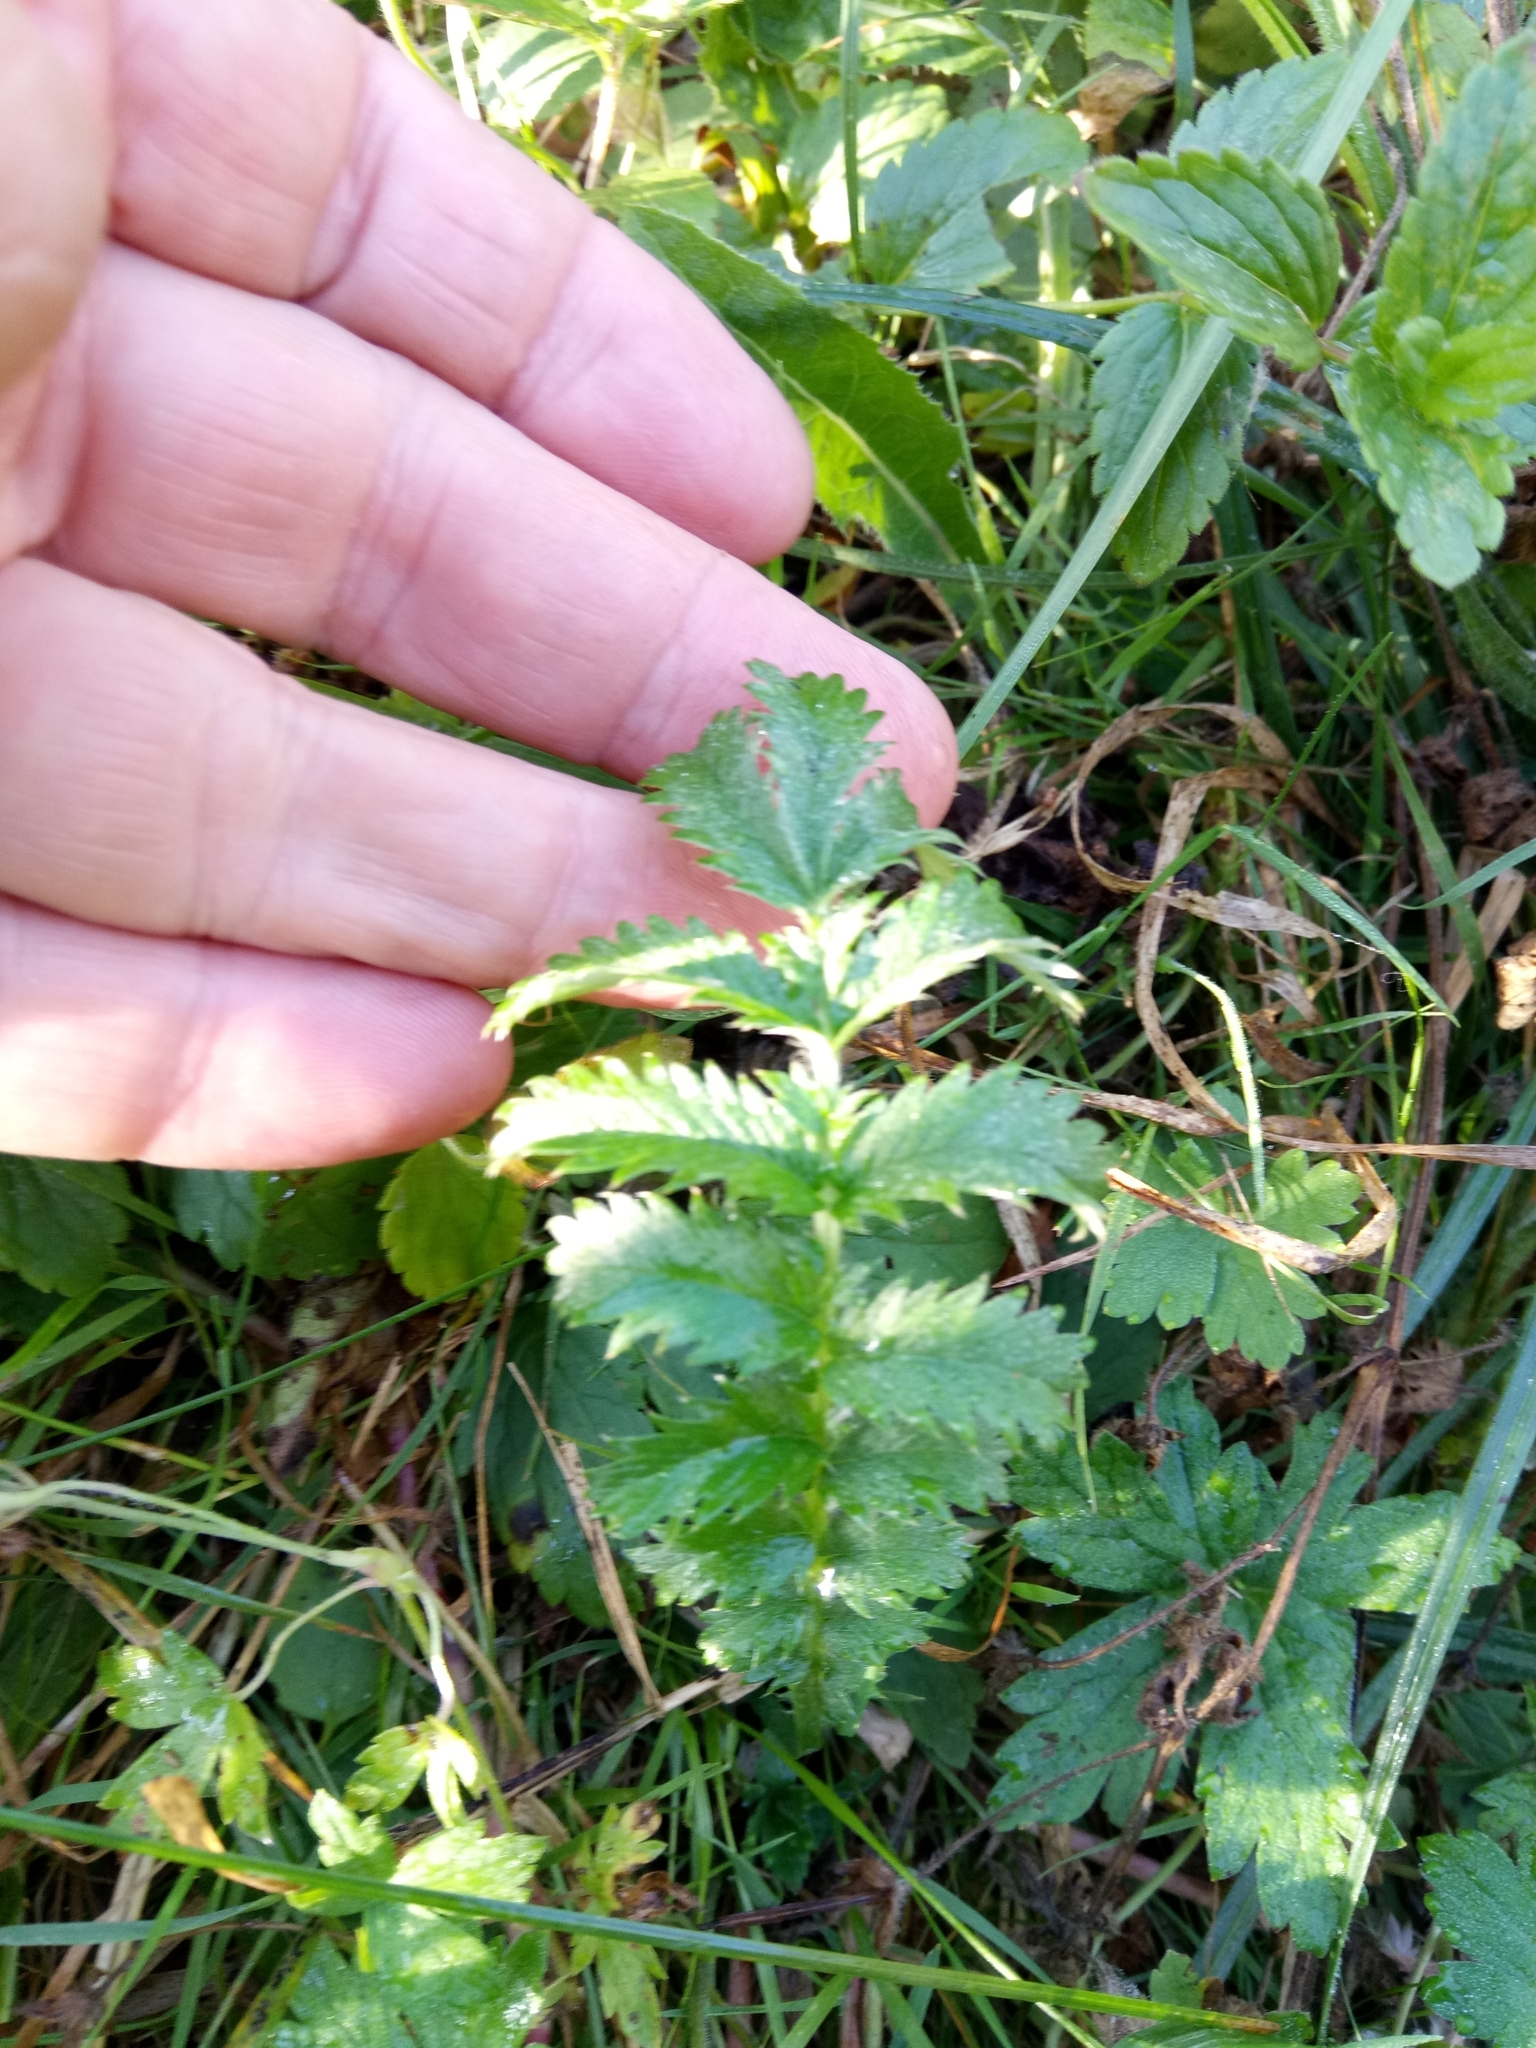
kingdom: Plantae
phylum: Tracheophyta
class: Magnoliopsida
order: Rosales
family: Rosaceae
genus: Argentina
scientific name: Argentina anserina
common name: Common silverweed
